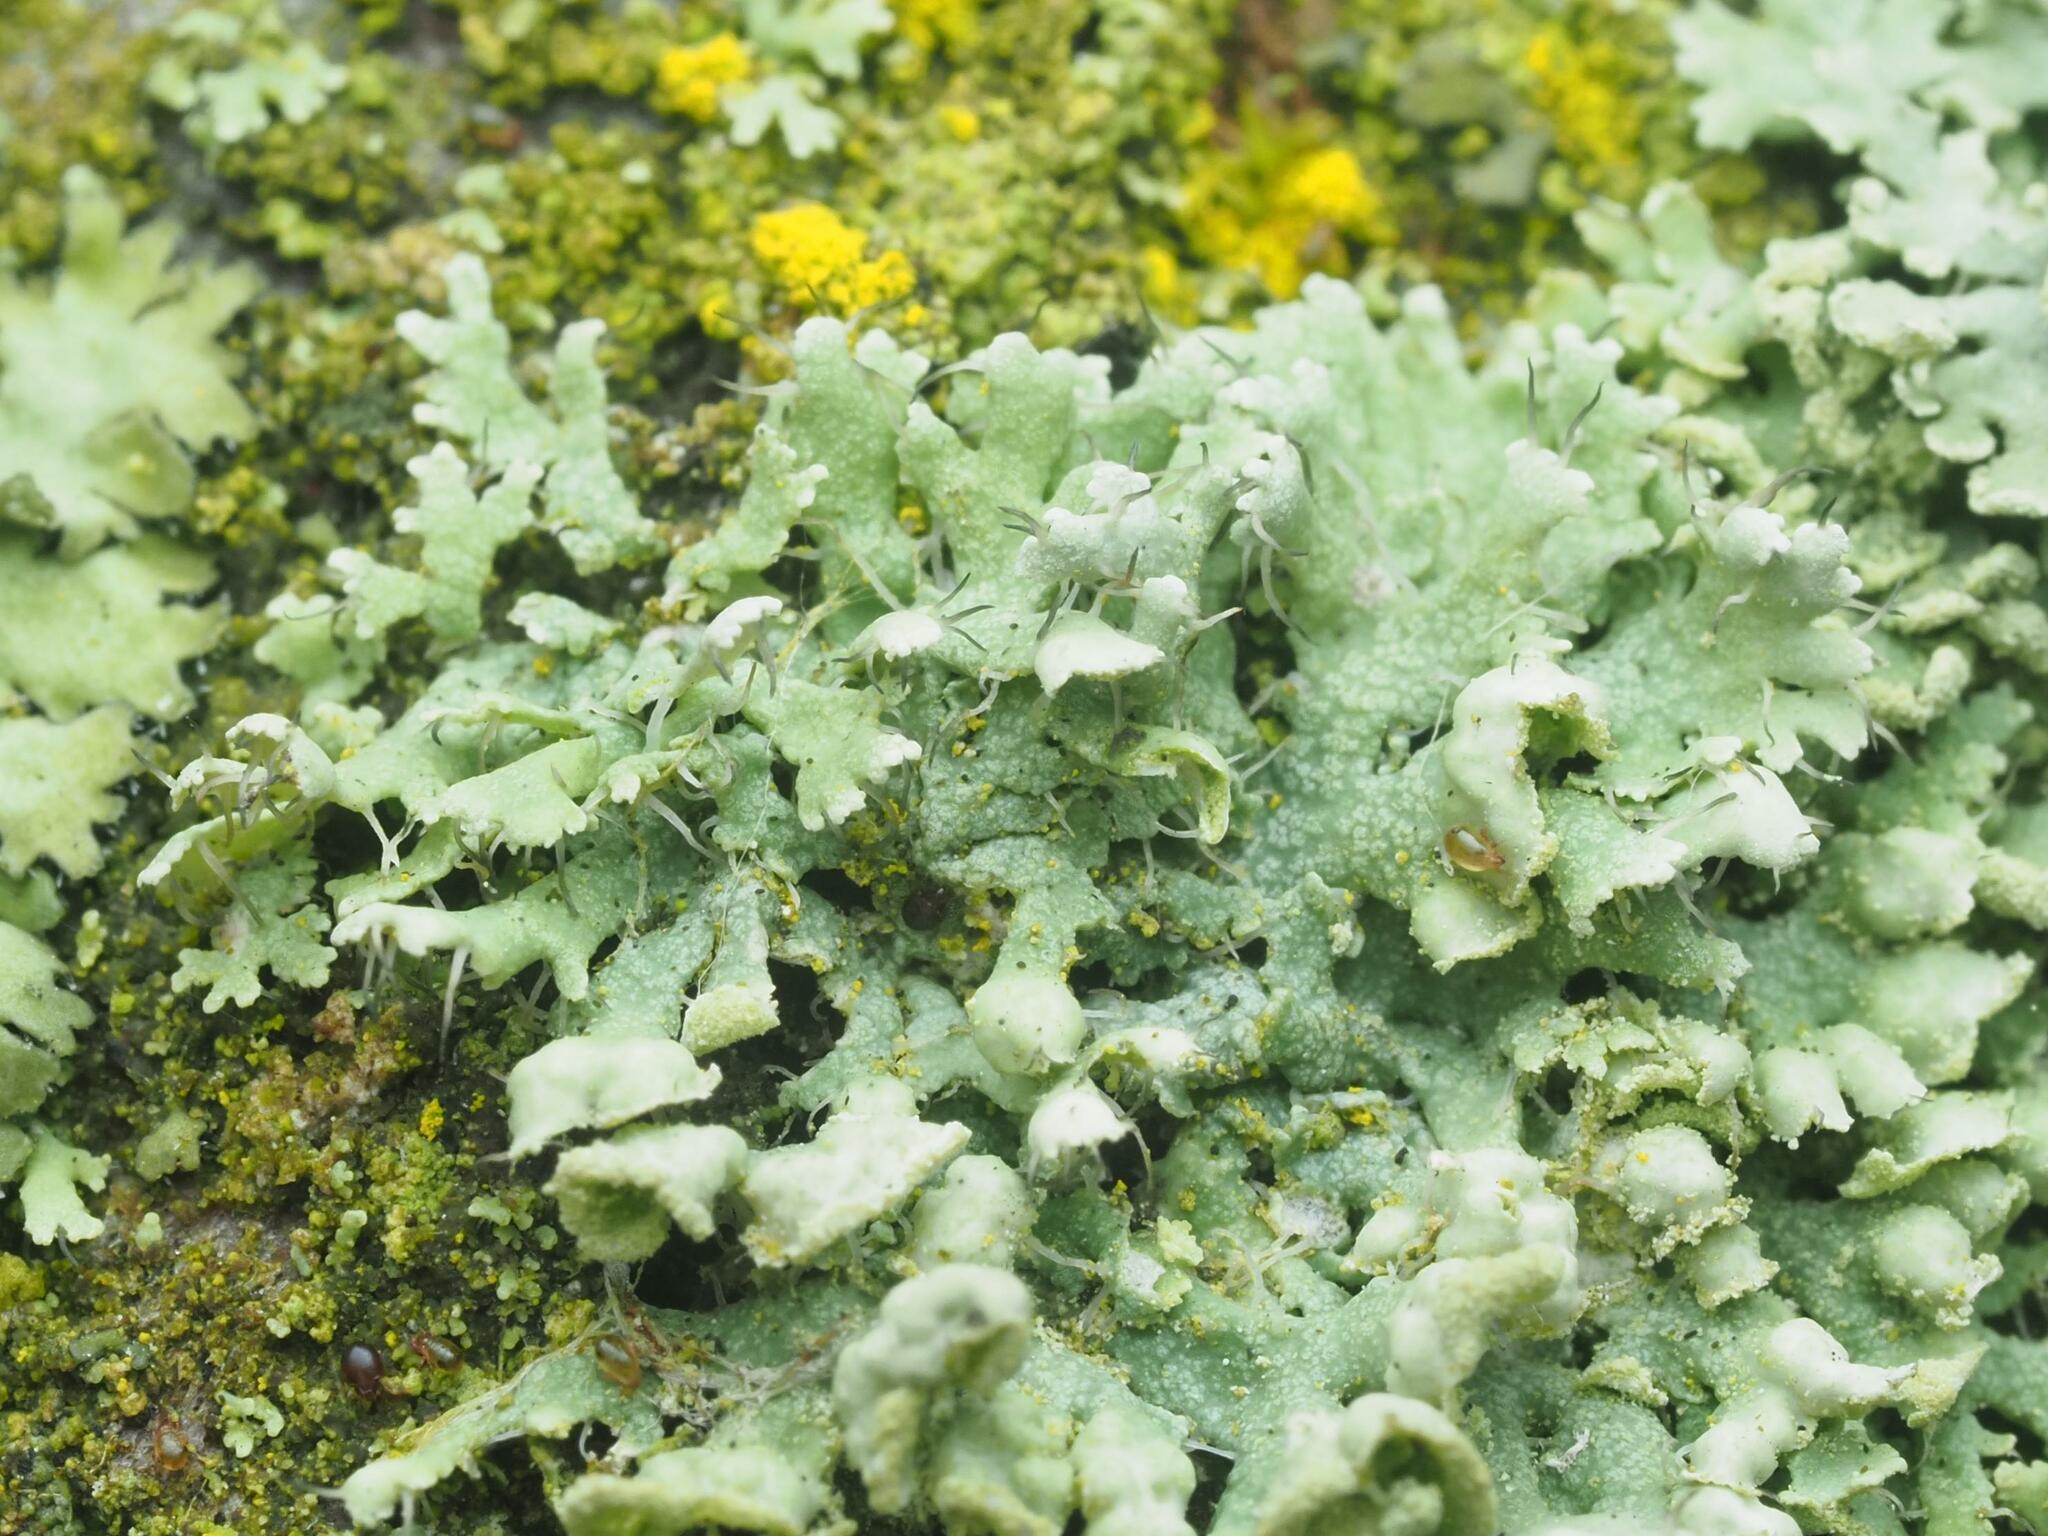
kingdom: Fungi
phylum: Ascomycota
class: Lecanoromycetes
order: Caliciales
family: Physciaceae
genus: Physcia
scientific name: Physcia adscendens
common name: Hooded rosette lichen
